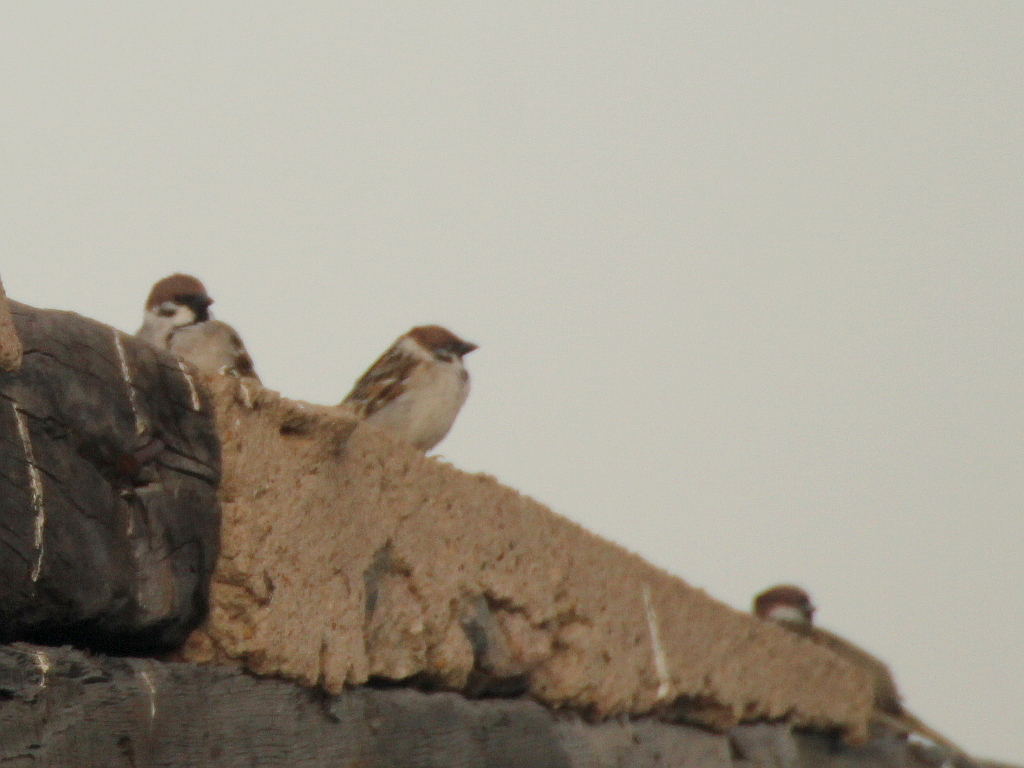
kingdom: Animalia
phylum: Chordata
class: Aves
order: Passeriformes
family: Passeridae
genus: Passer
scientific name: Passer montanus
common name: Eurasian tree sparrow
